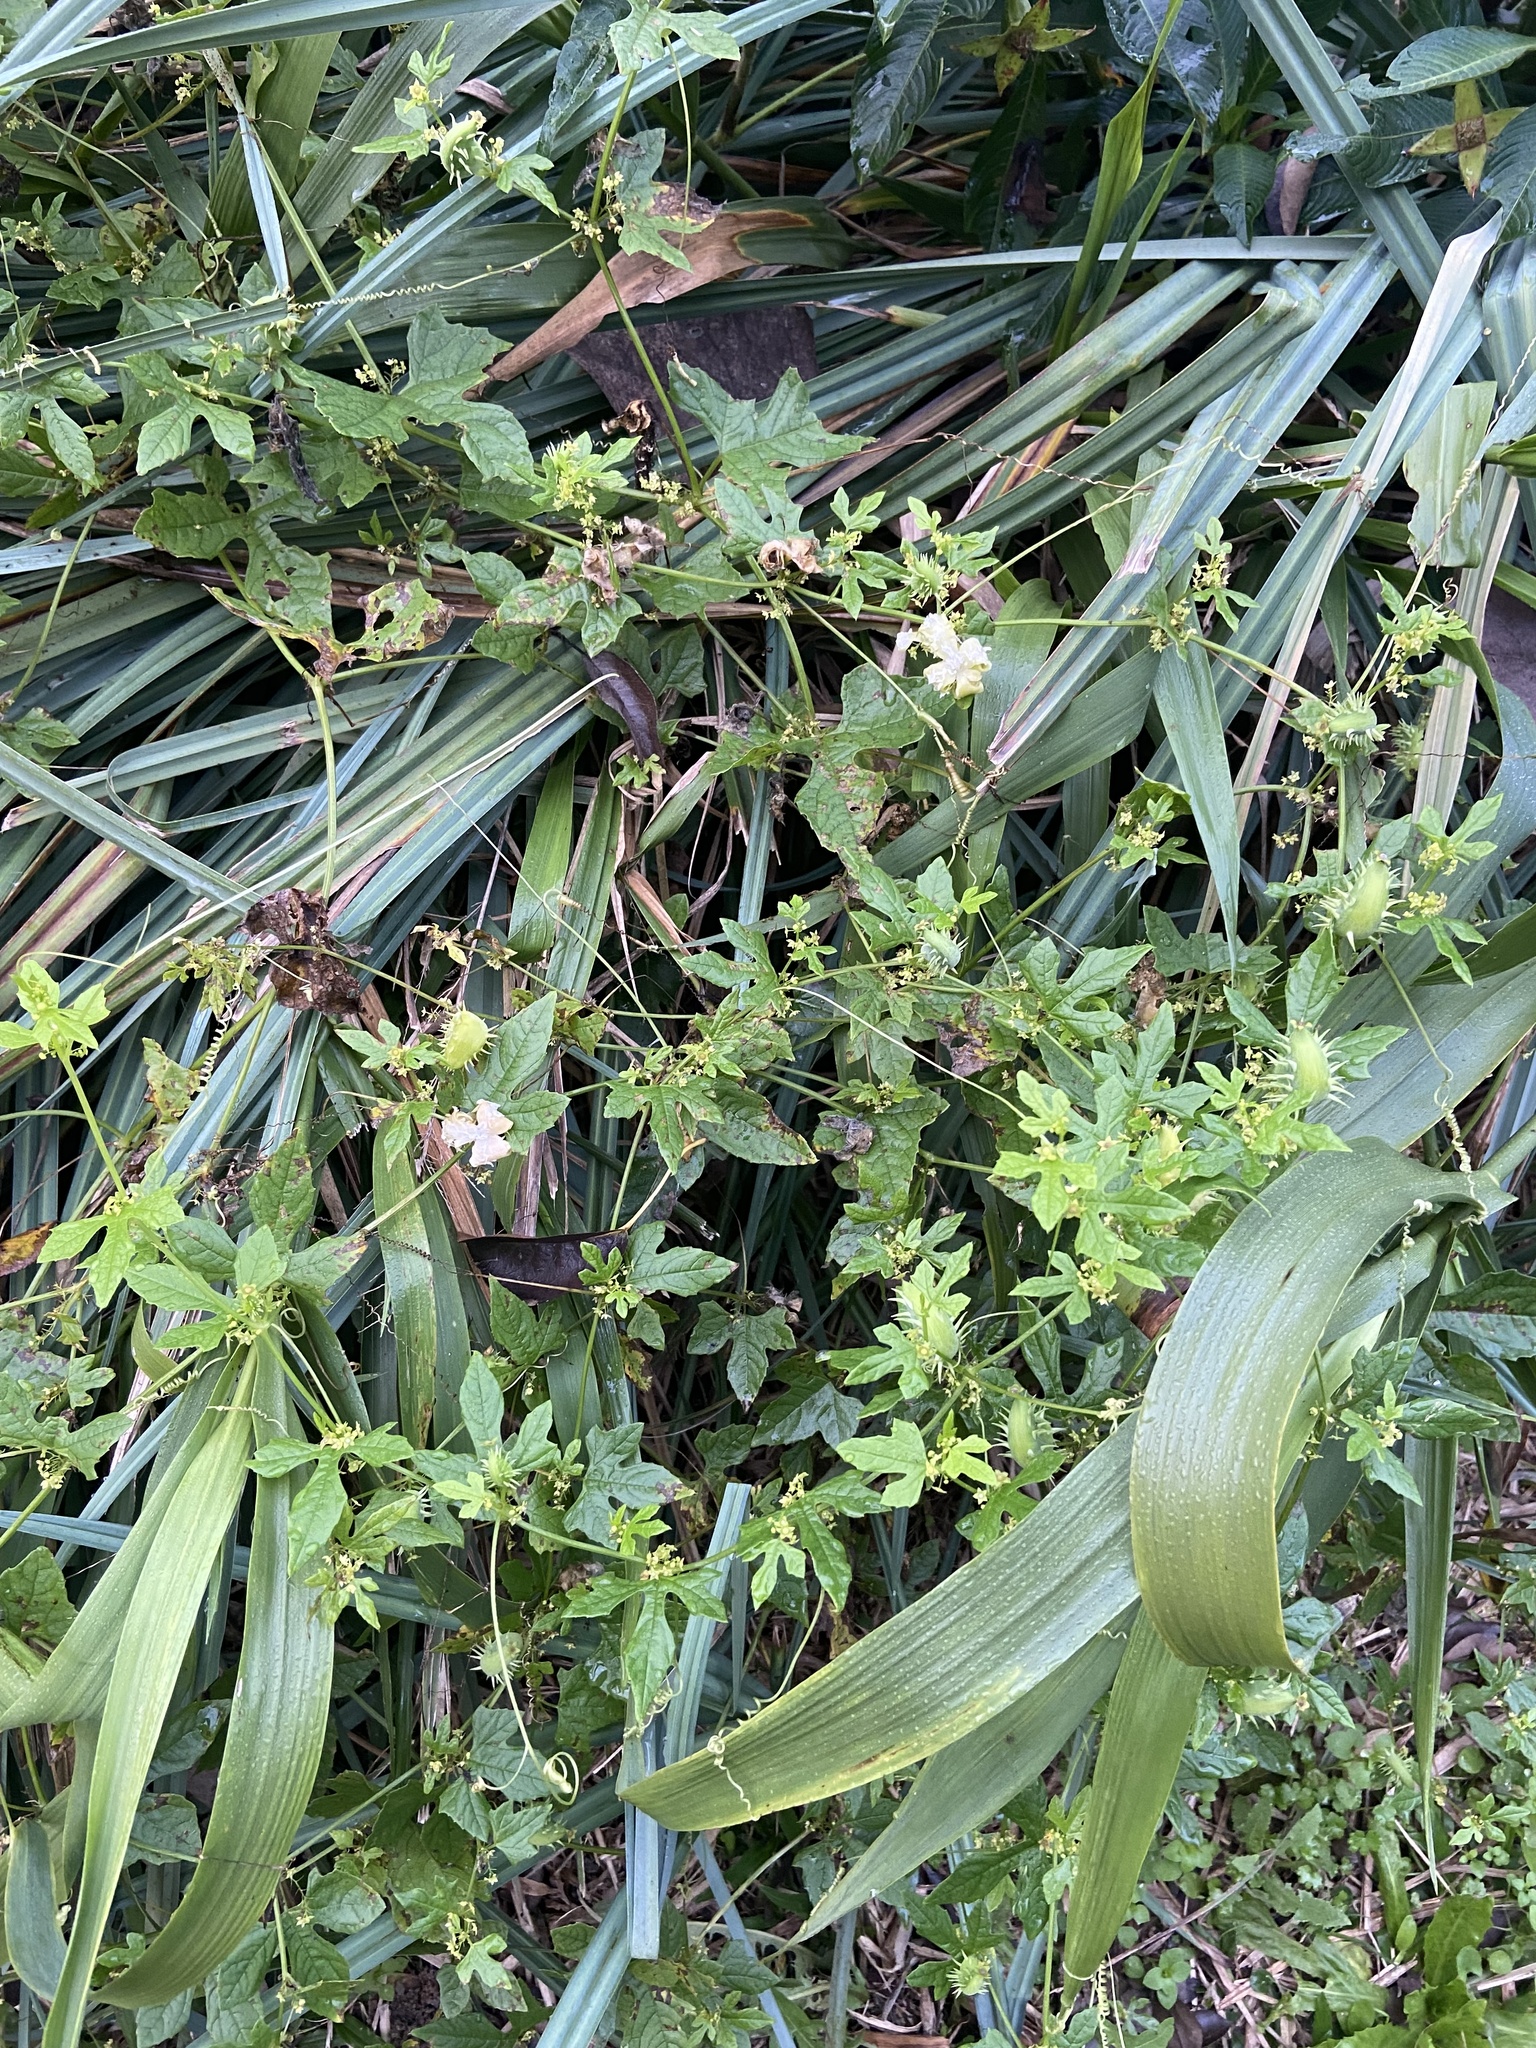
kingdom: Plantae
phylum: Tracheophyta
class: Magnoliopsida
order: Cucurbitales
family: Cucurbitaceae
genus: Cyclanthera
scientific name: Cyclanthera hystrix
